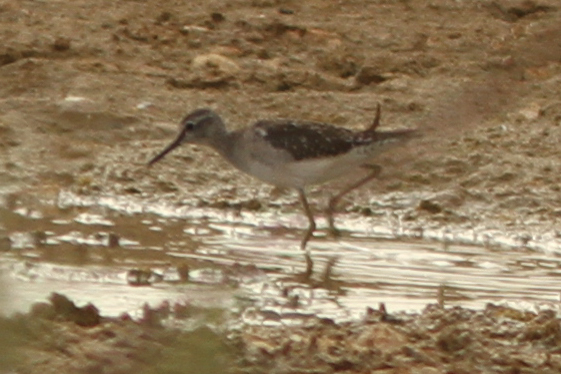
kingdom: Animalia
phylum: Chordata
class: Aves
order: Charadriiformes
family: Scolopacidae
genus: Tringa
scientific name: Tringa glareola
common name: Wood sandpiper
